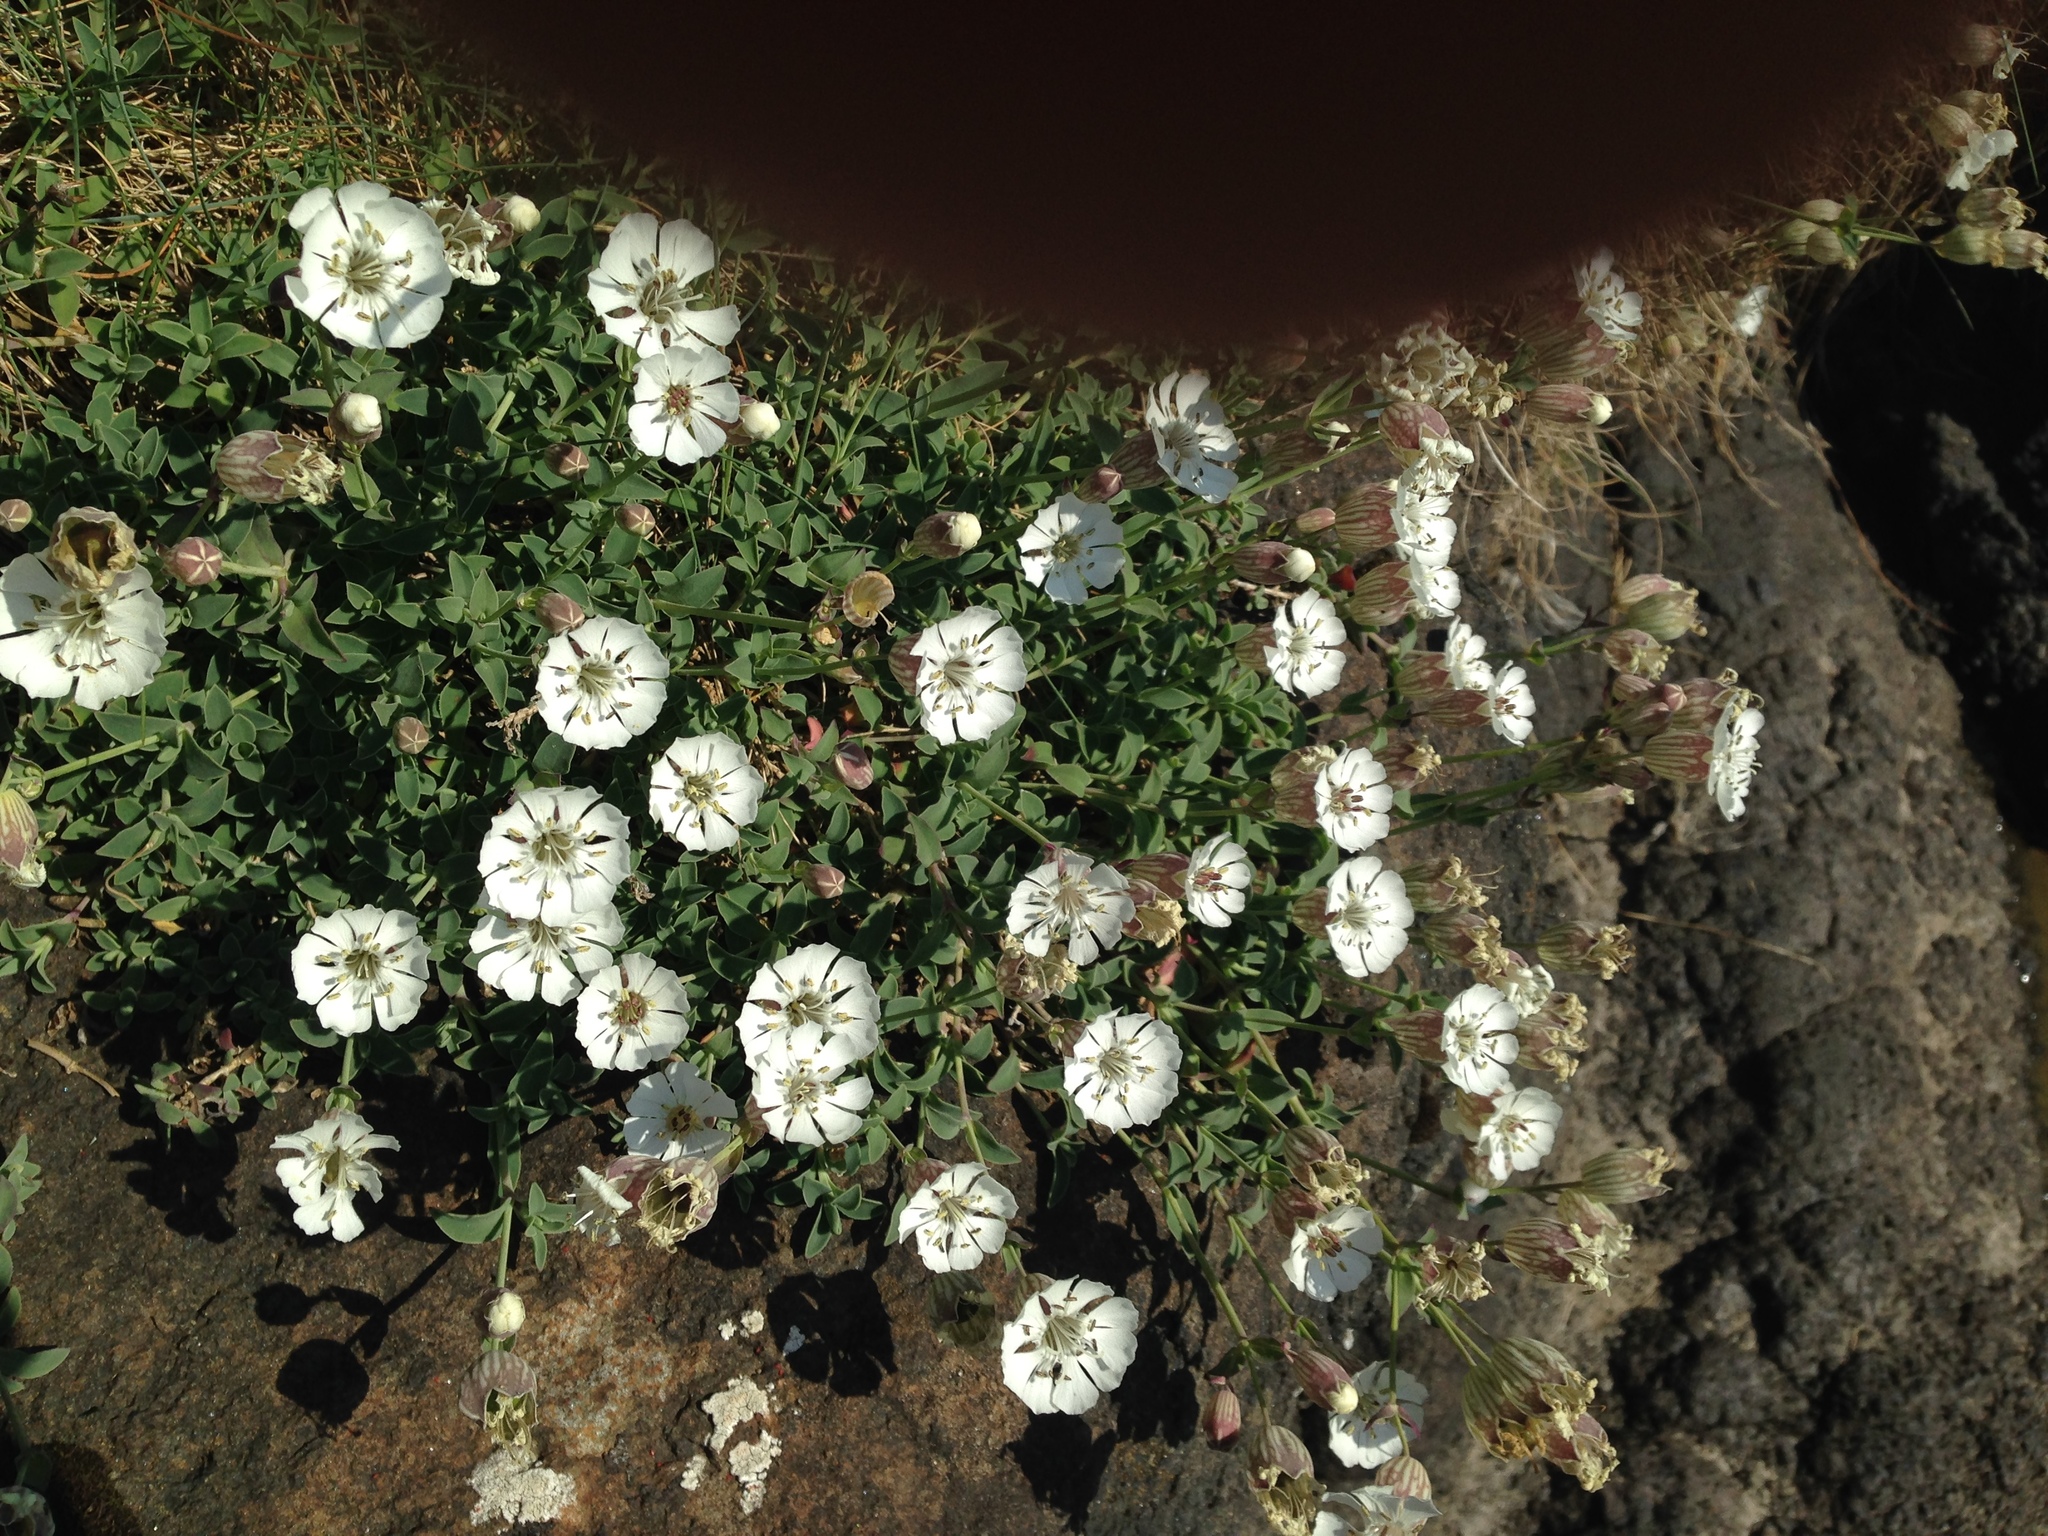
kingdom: Plantae
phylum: Tracheophyta
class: Magnoliopsida
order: Caryophyllales
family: Caryophyllaceae
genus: Silene
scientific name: Silene uniflora
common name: Sea campion
